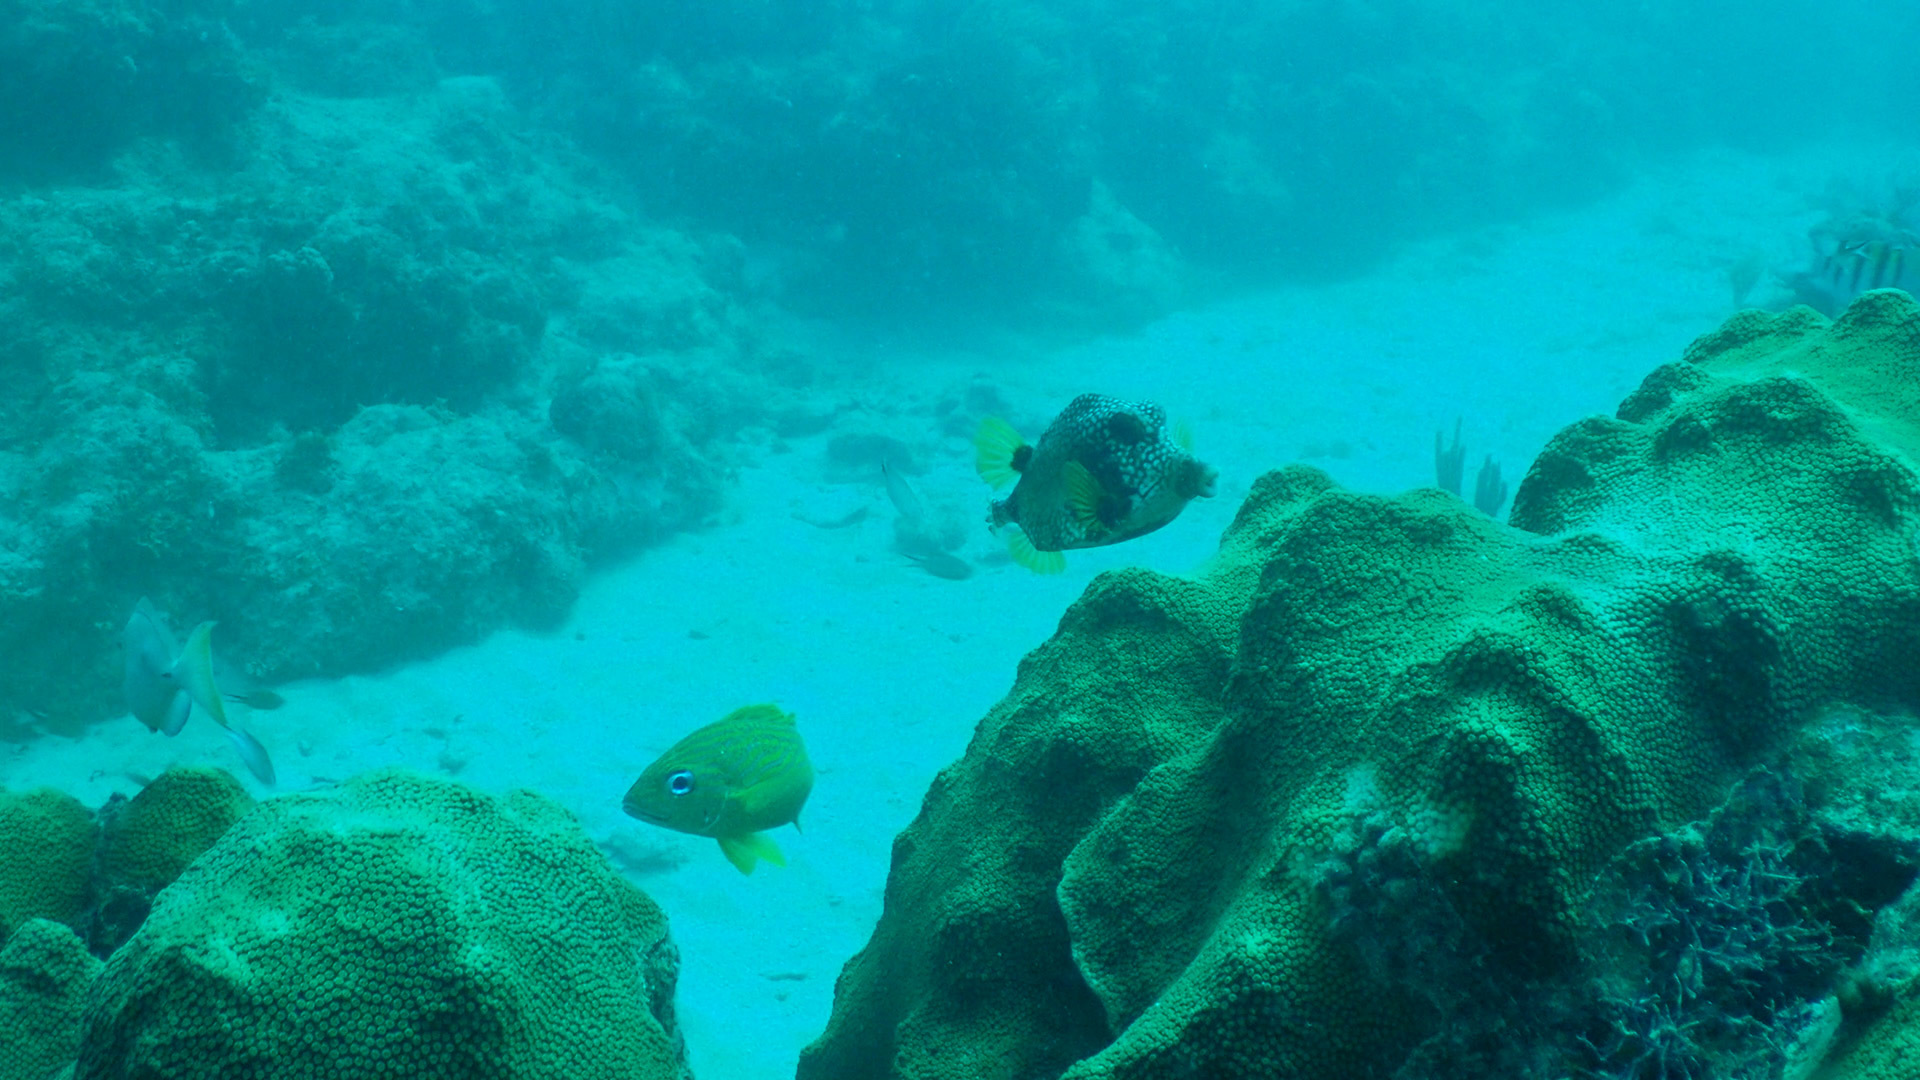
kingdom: Animalia
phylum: Chordata
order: Tetraodontiformes
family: Ostraciidae
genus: Lactophrys
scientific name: Lactophrys triqueter
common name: Smooth trunkfish
